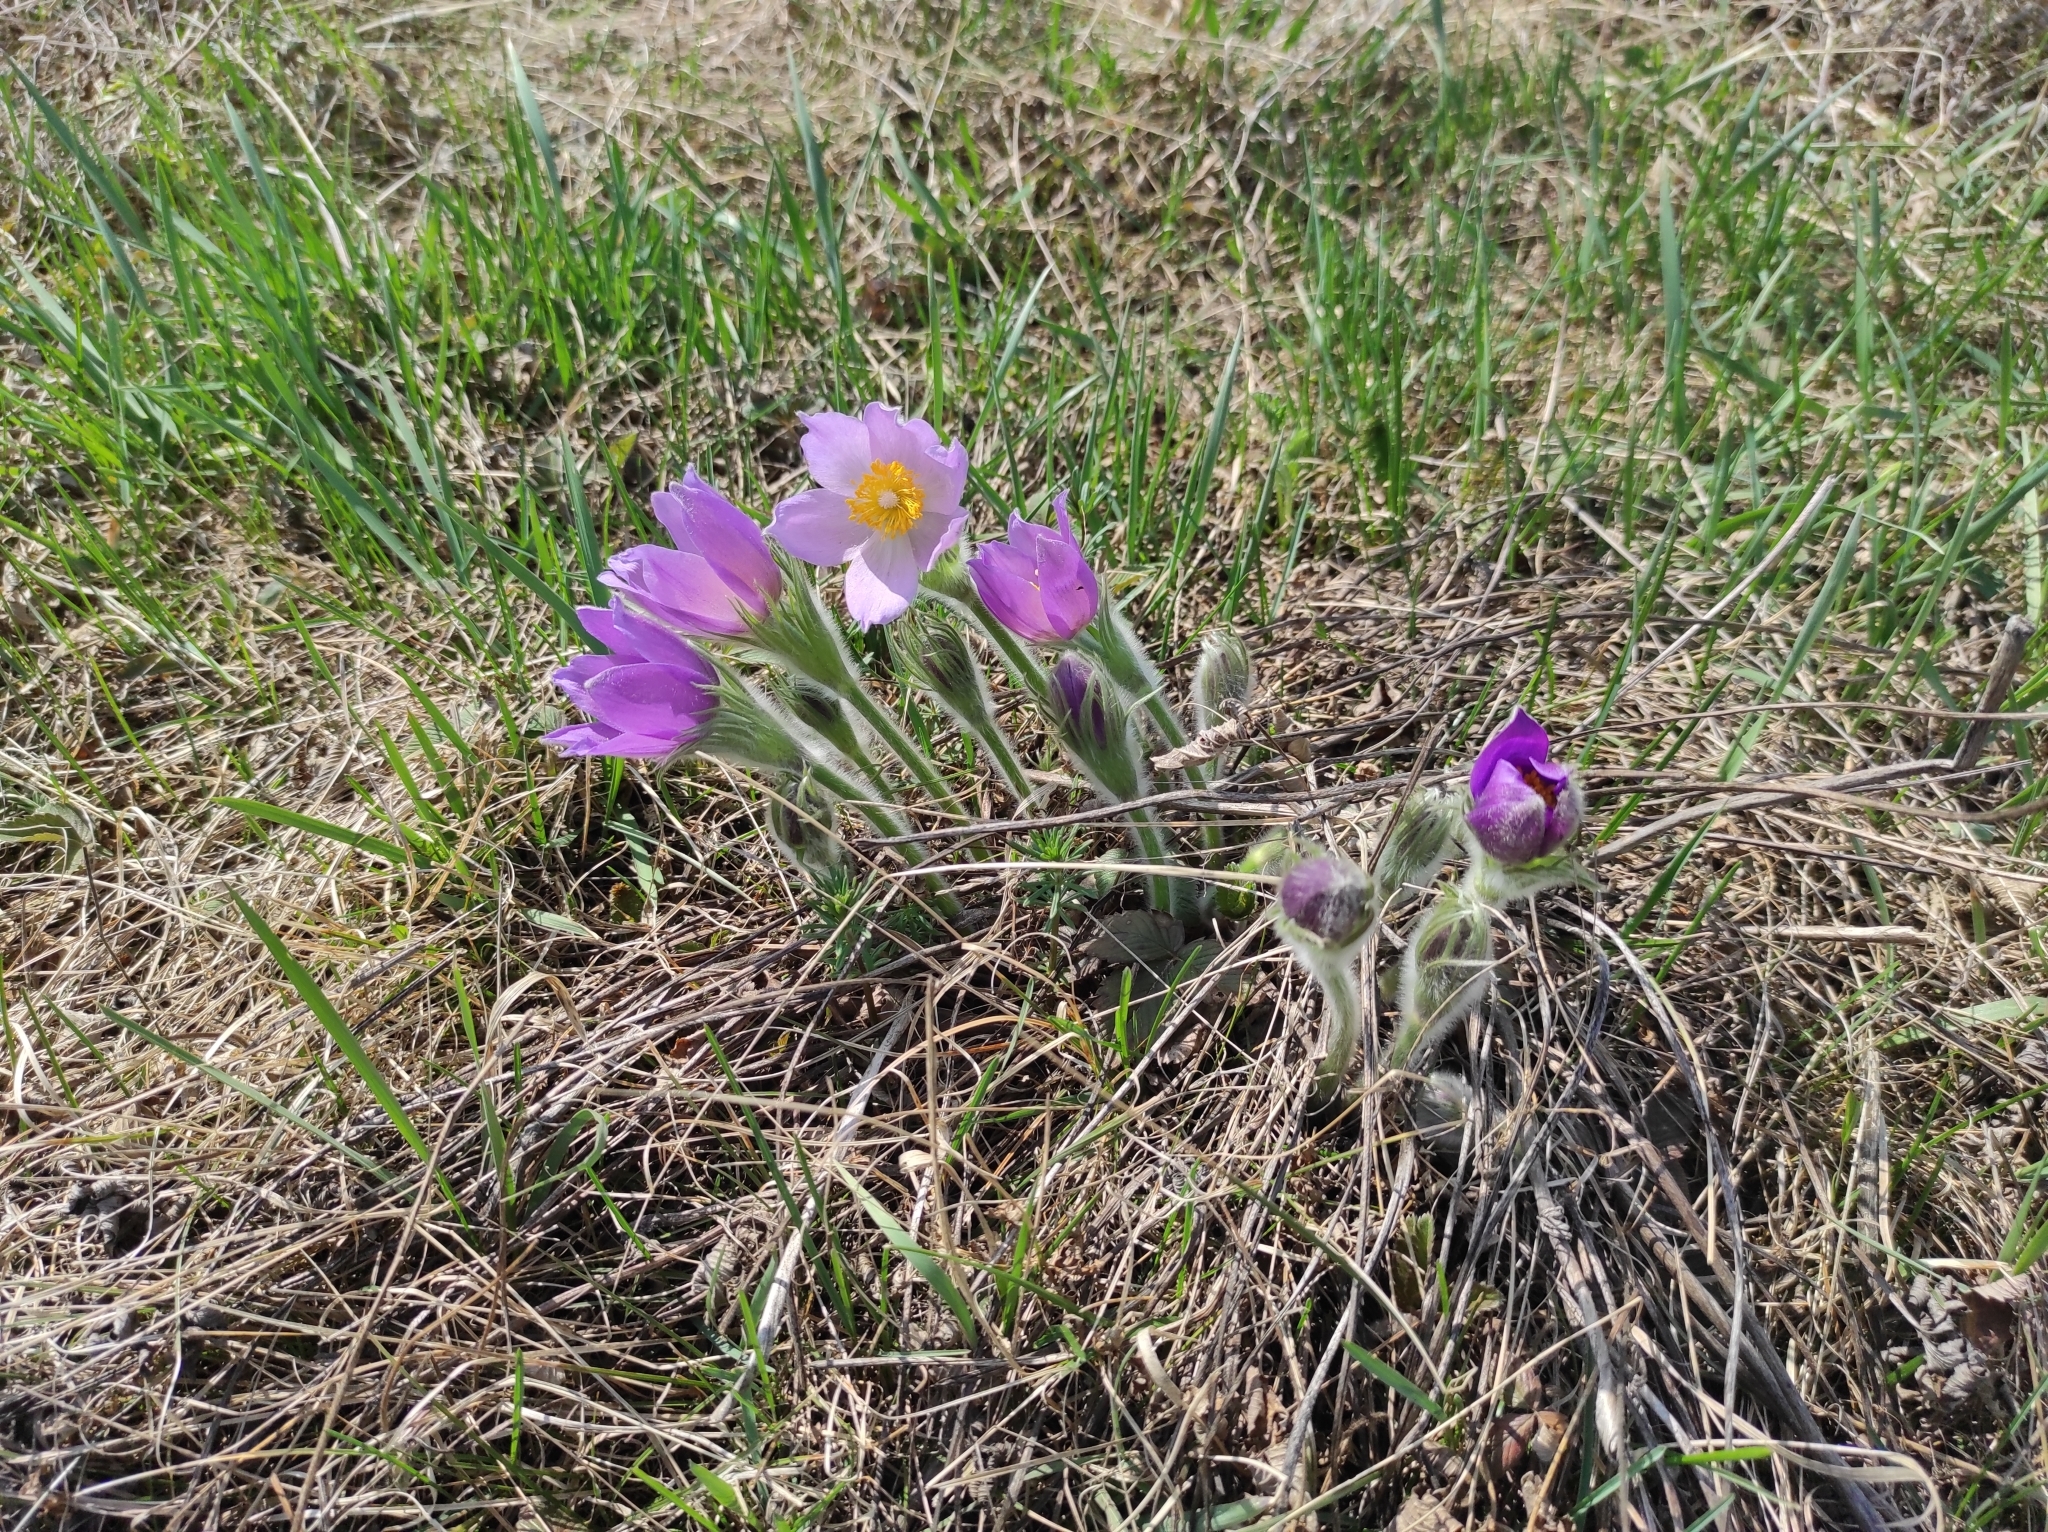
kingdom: Plantae
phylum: Tracheophyta
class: Magnoliopsida
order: Ranunculales
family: Ranunculaceae
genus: Pulsatilla
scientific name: Pulsatilla patens
